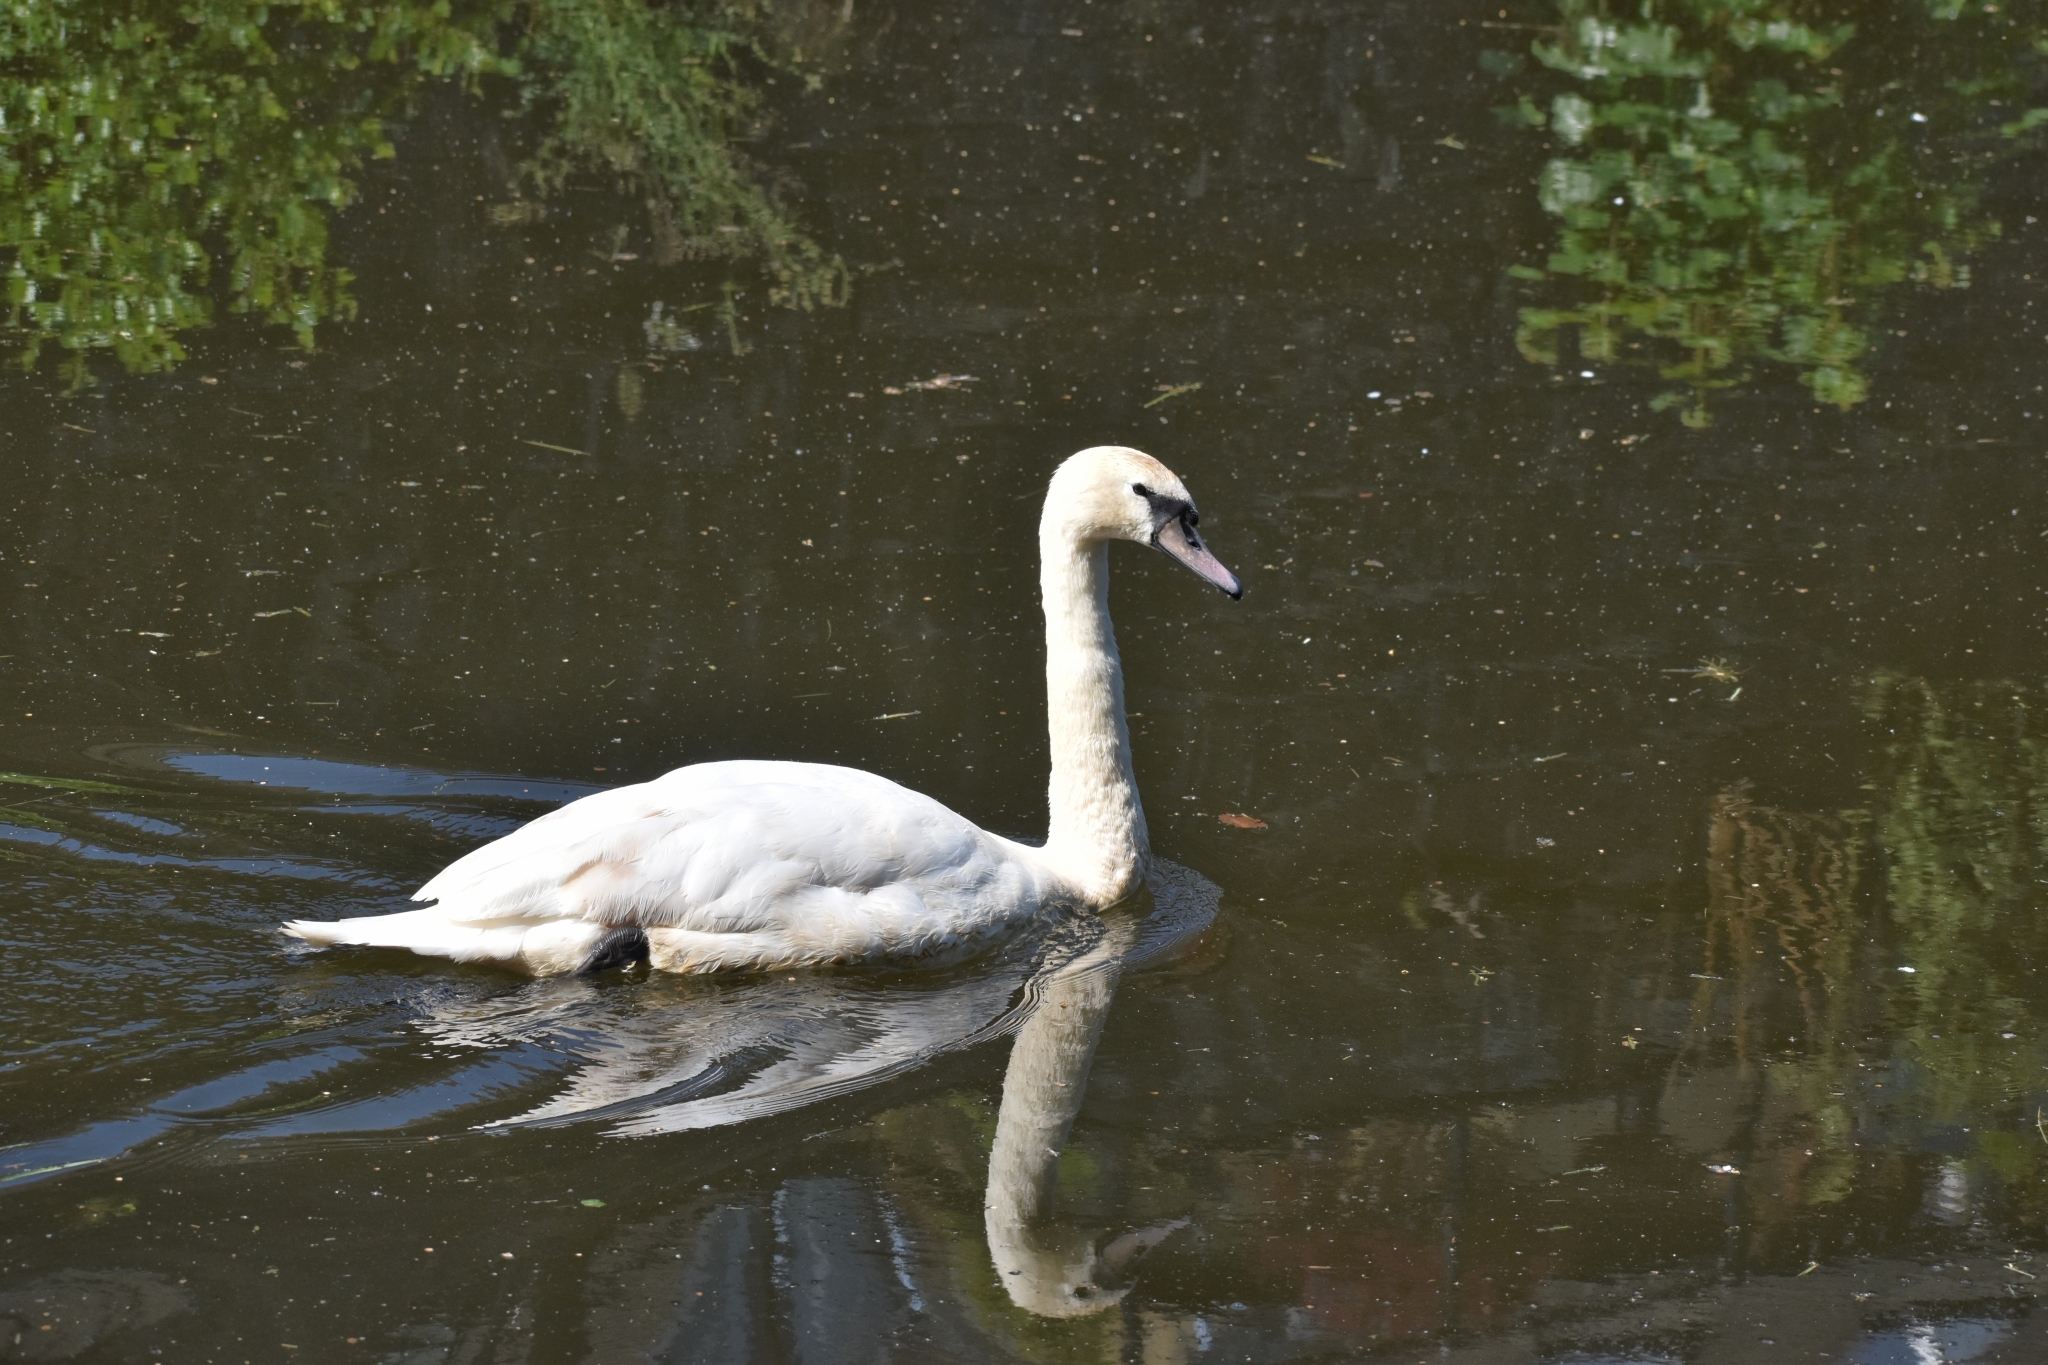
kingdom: Animalia
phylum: Chordata
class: Aves
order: Anseriformes
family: Anatidae
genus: Cygnus
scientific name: Cygnus olor
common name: Mute swan
